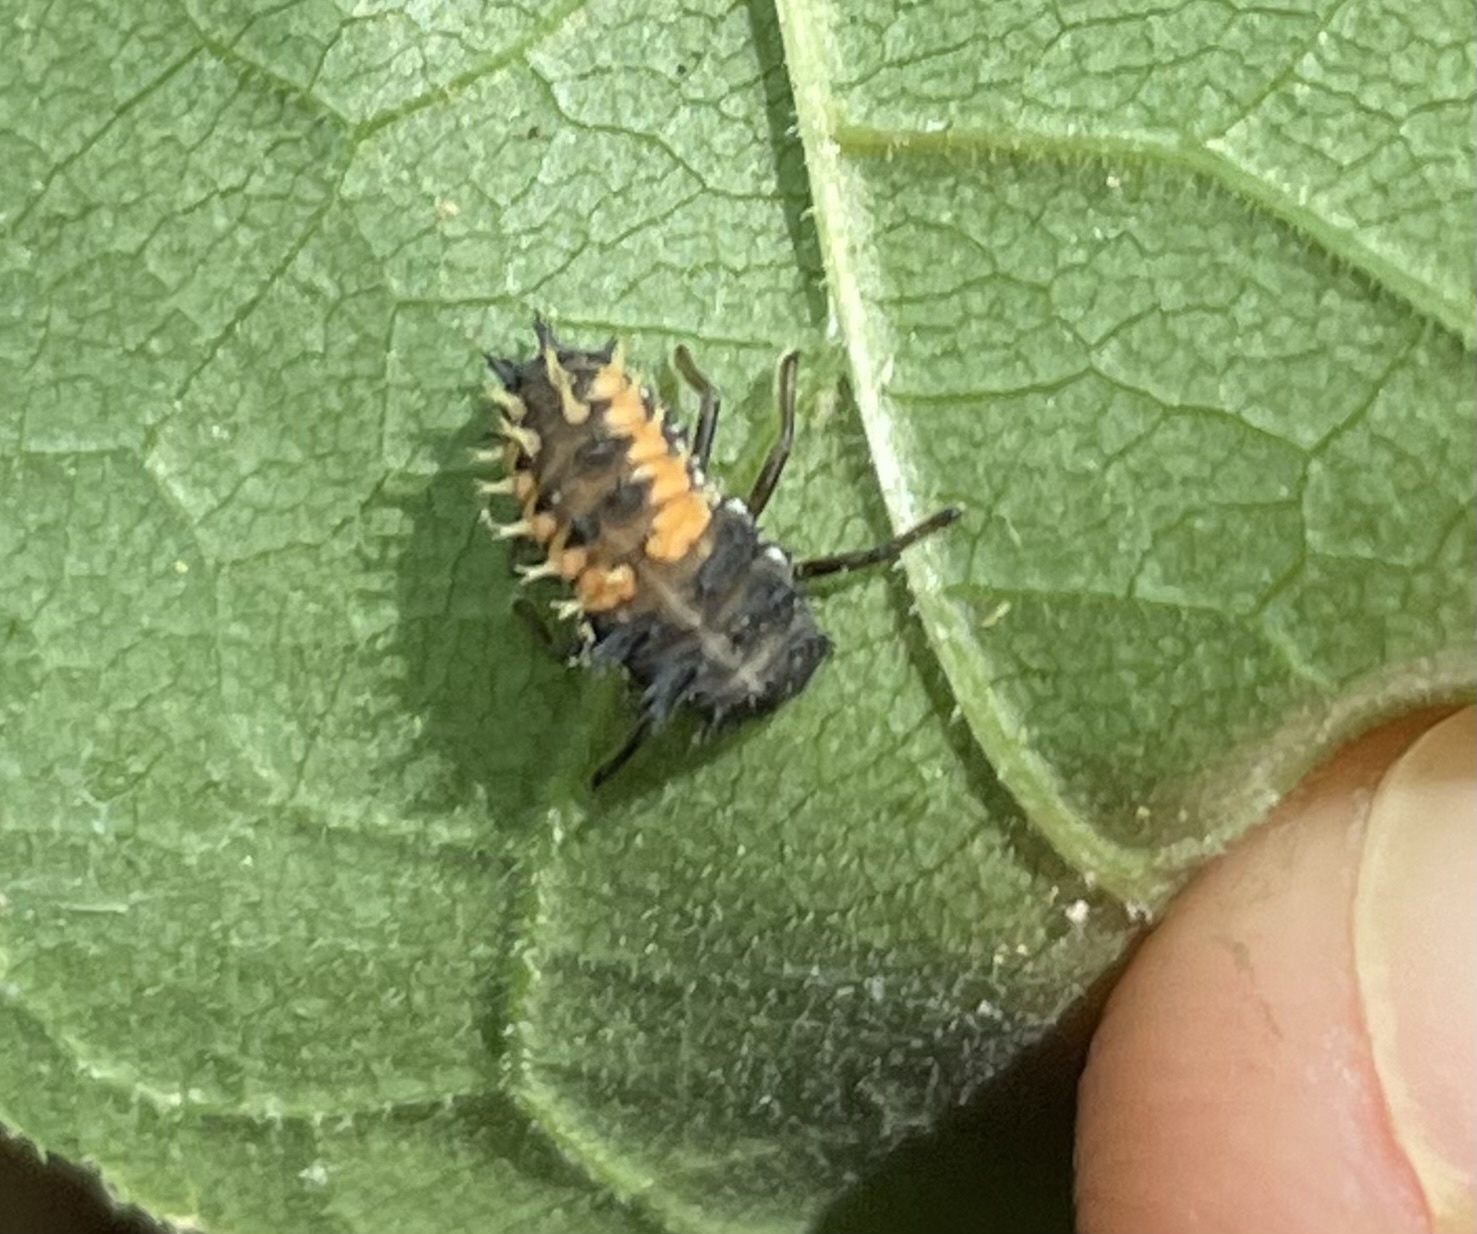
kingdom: Animalia
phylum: Arthropoda
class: Insecta
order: Coleoptera
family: Coccinellidae
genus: Harmonia
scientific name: Harmonia axyridis
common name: Harlequin ladybird
